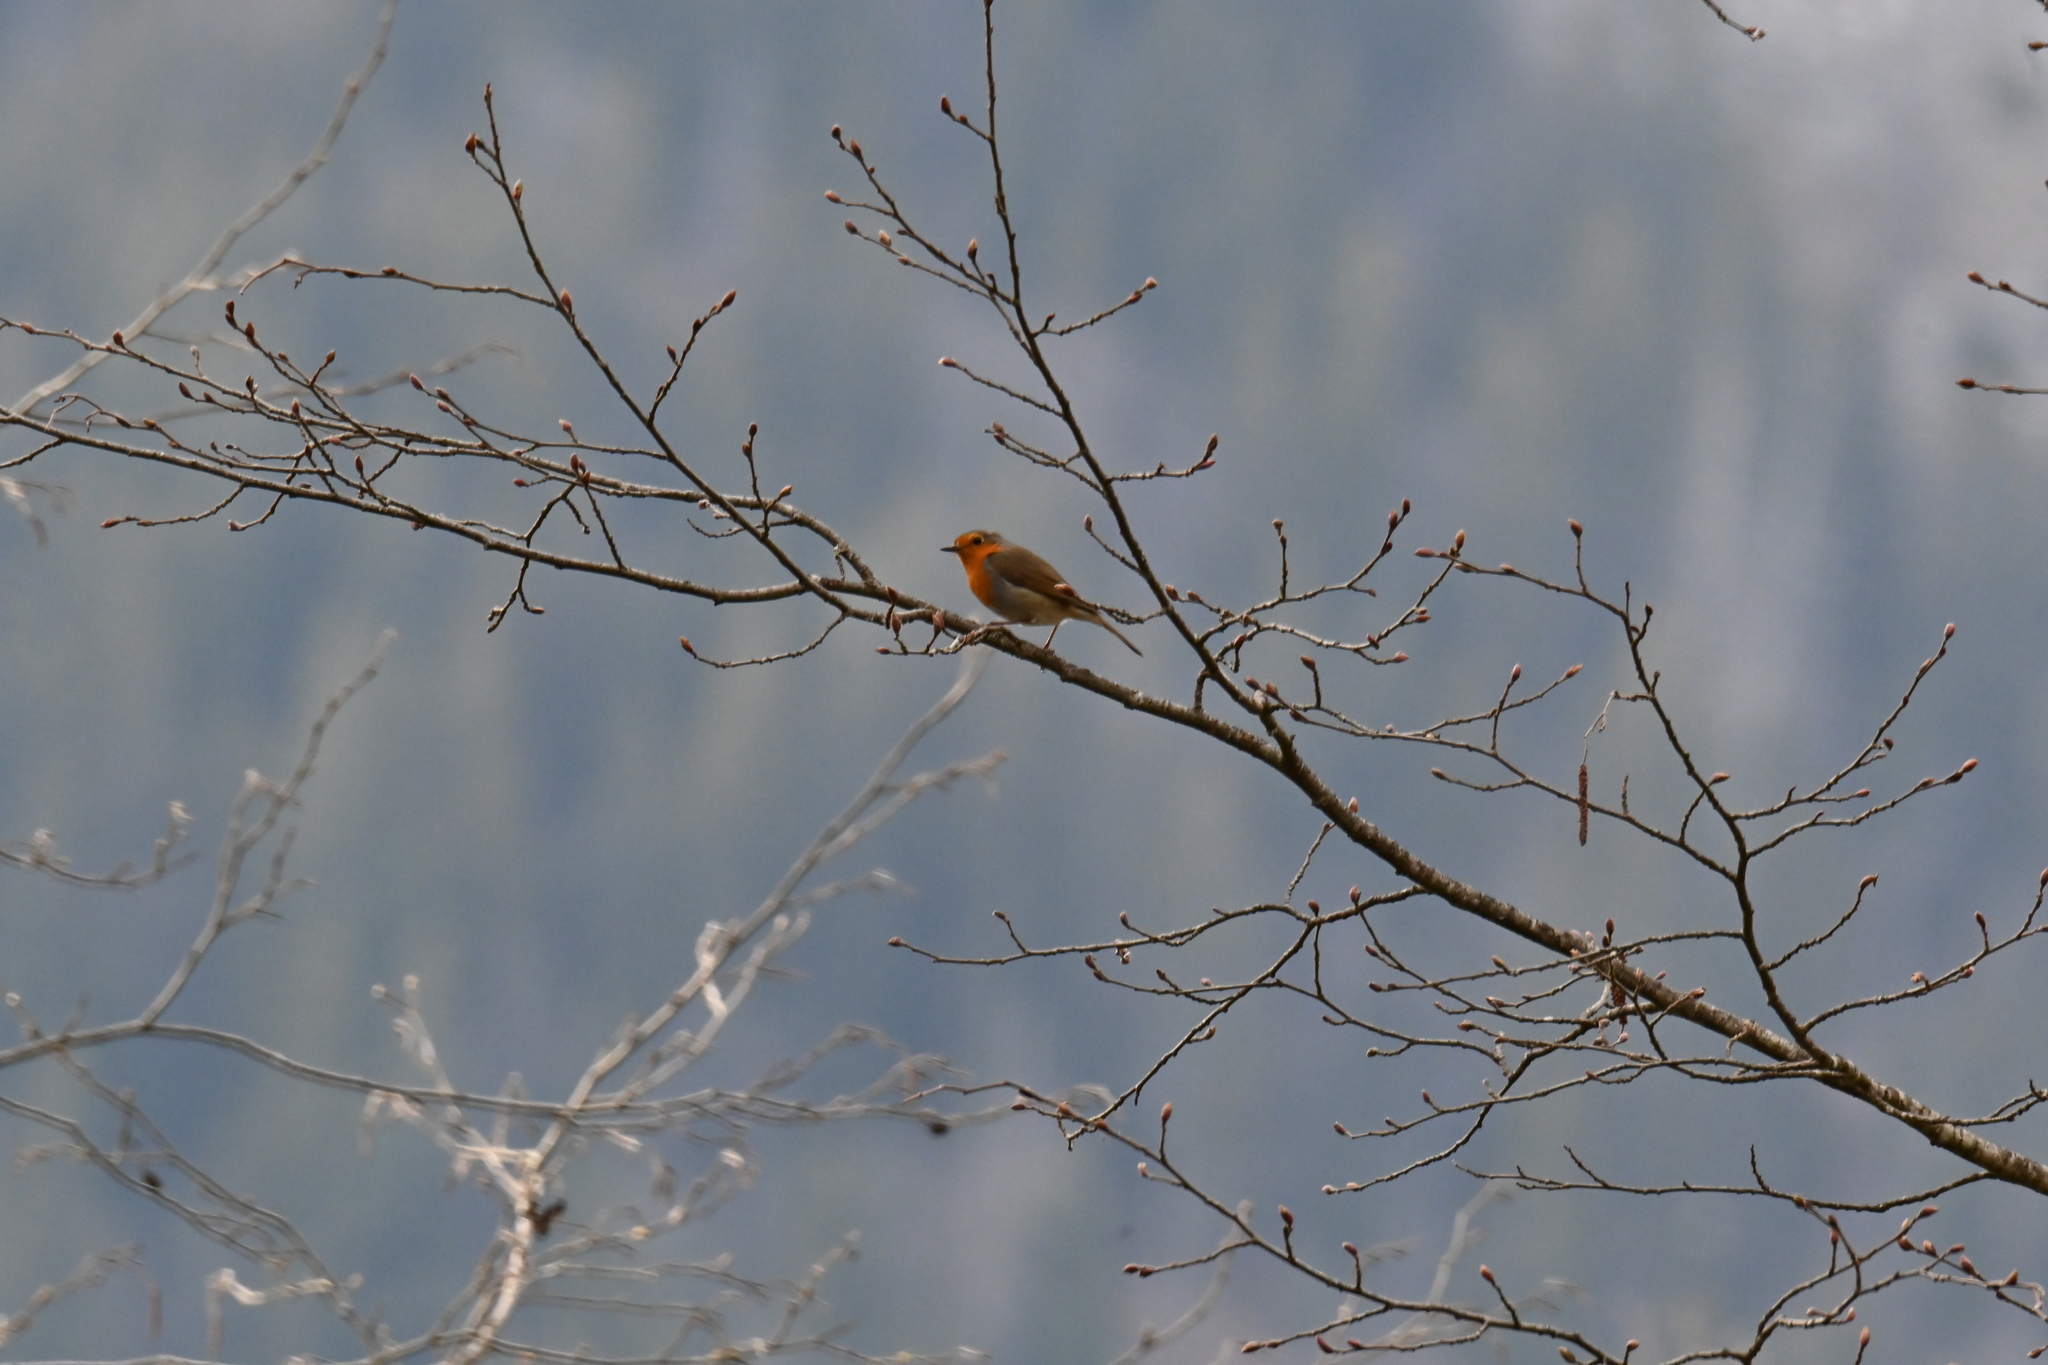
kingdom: Animalia
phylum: Chordata
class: Aves
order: Passeriformes
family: Muscicapidae
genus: Erithacus
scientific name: Erithacus rubecula
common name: European robin
